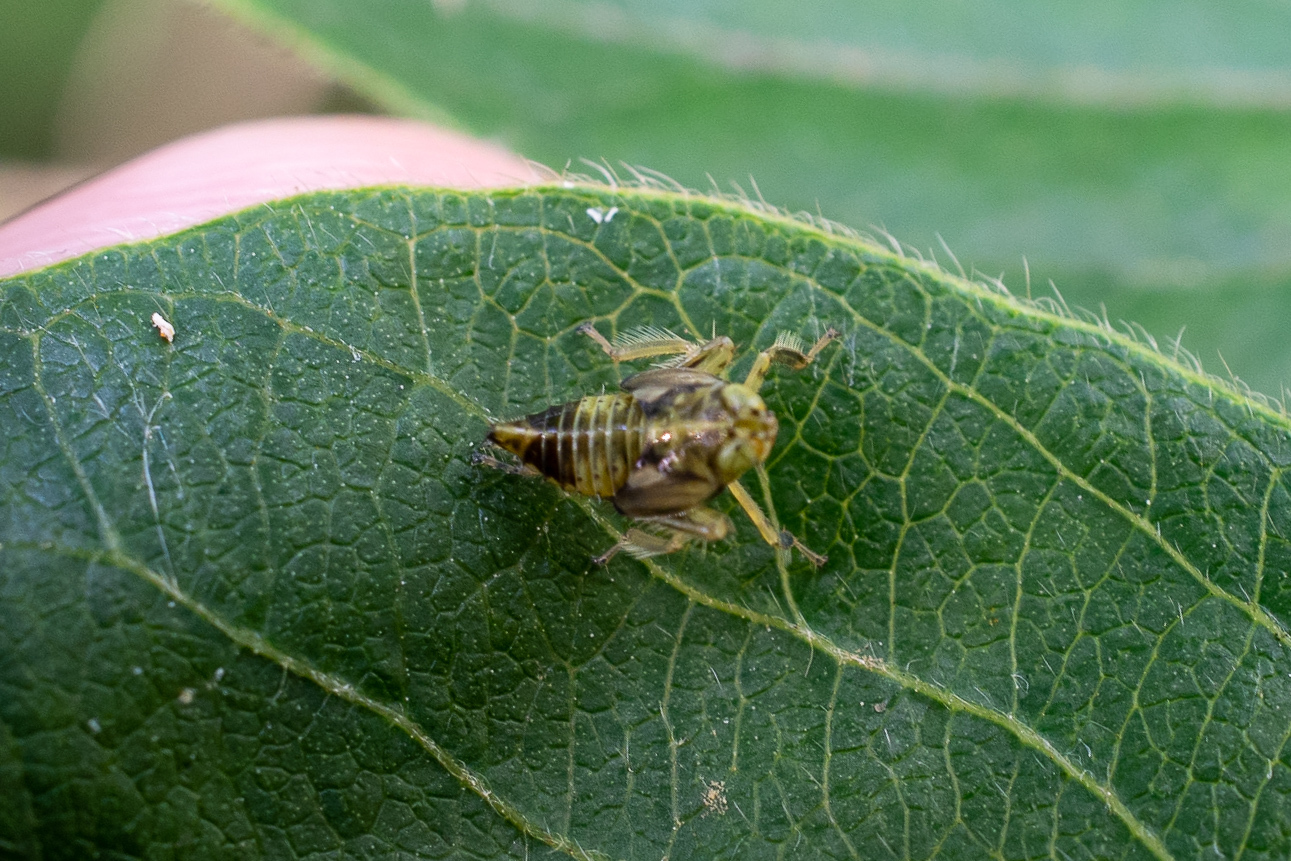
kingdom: Animalia
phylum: Arthropoda
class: Insecta
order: Hemiptera
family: Cicadellidae
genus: Jikradia
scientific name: Jikradia olitoria
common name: Coppery leafhopper
